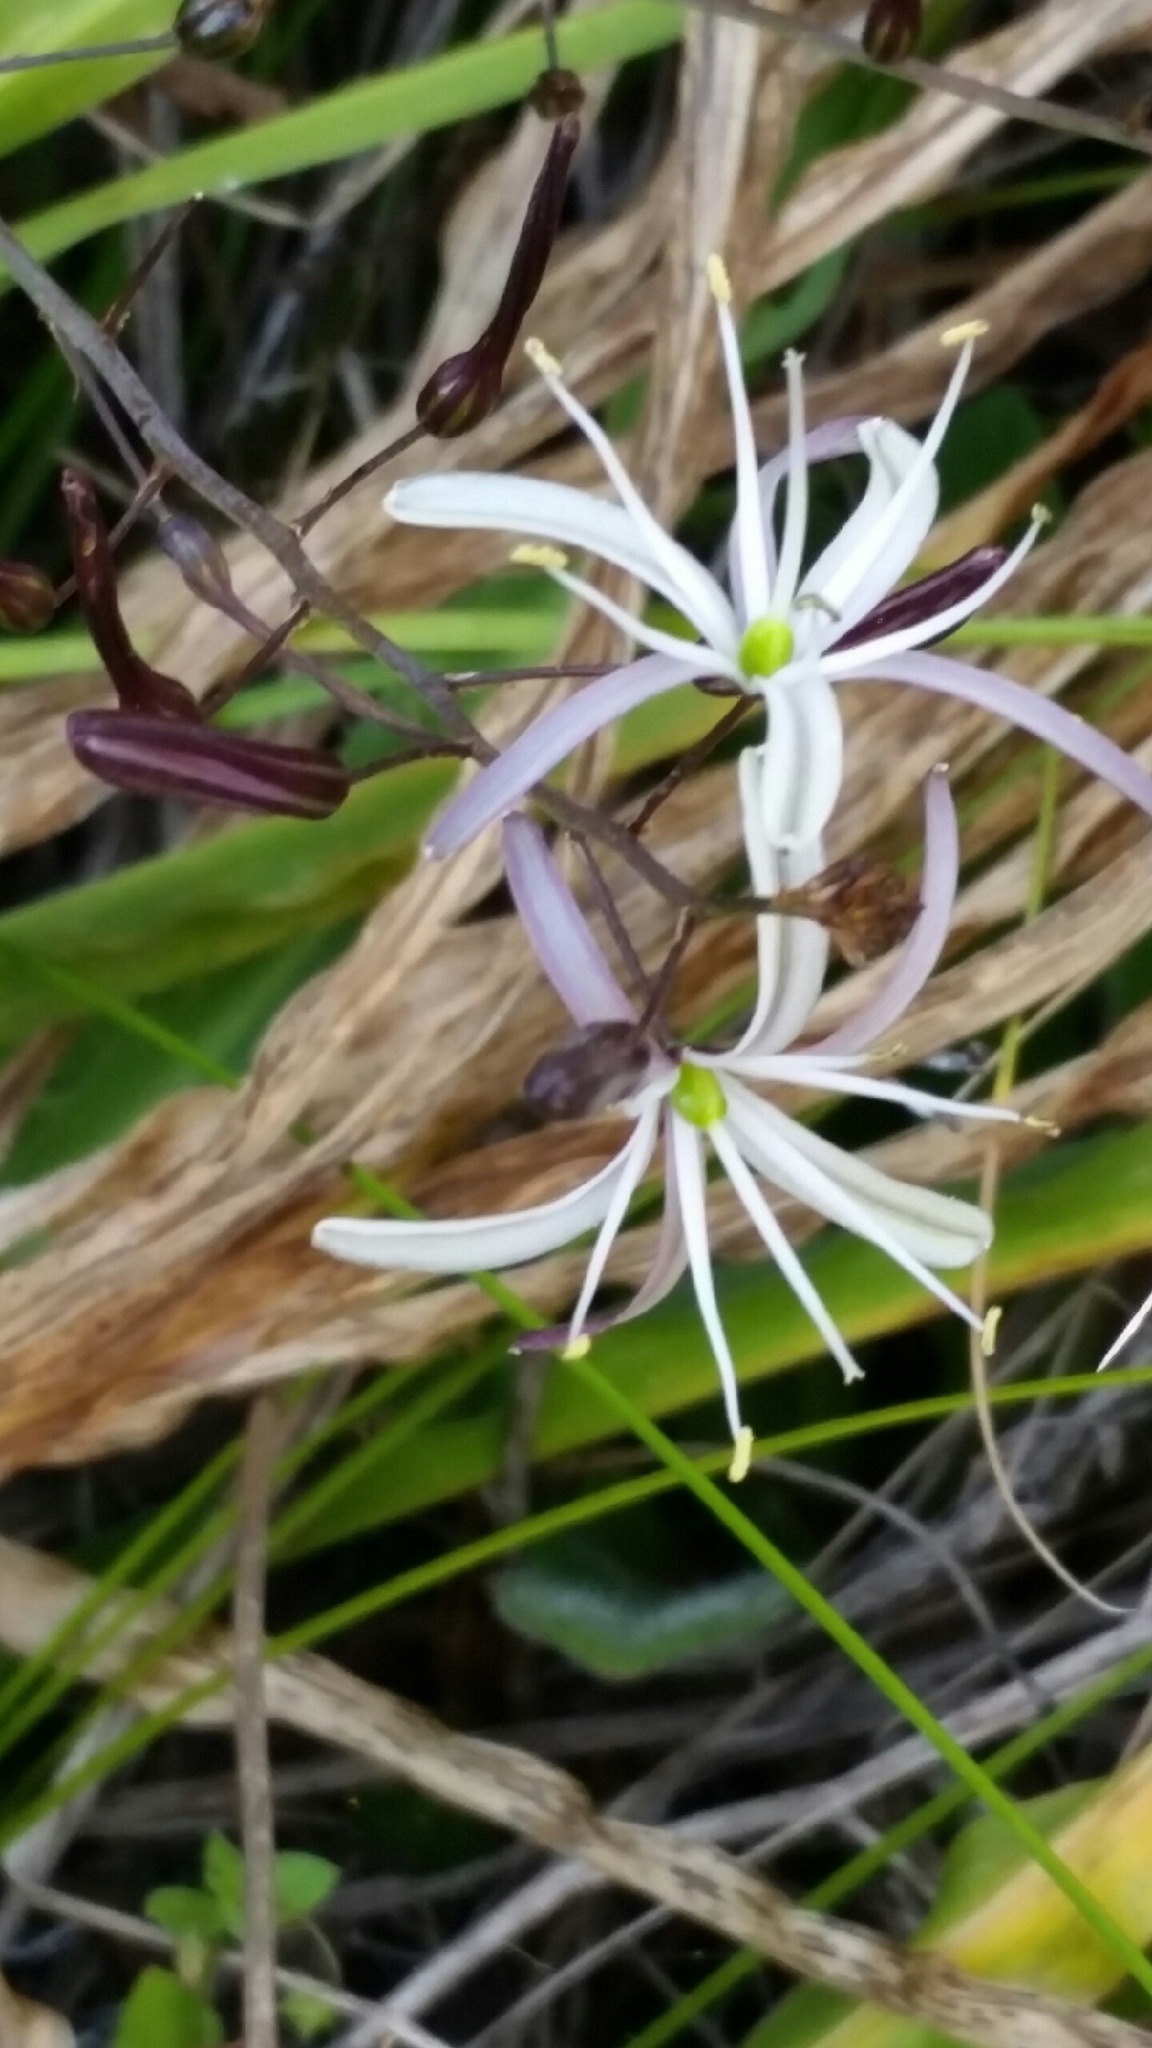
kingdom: Plantae
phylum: Tracheophyta
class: Liliopsida
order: Asparagales
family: Asparagaceae
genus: Chlorogalum
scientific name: Chlorogalum pomeridianum
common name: Amole
